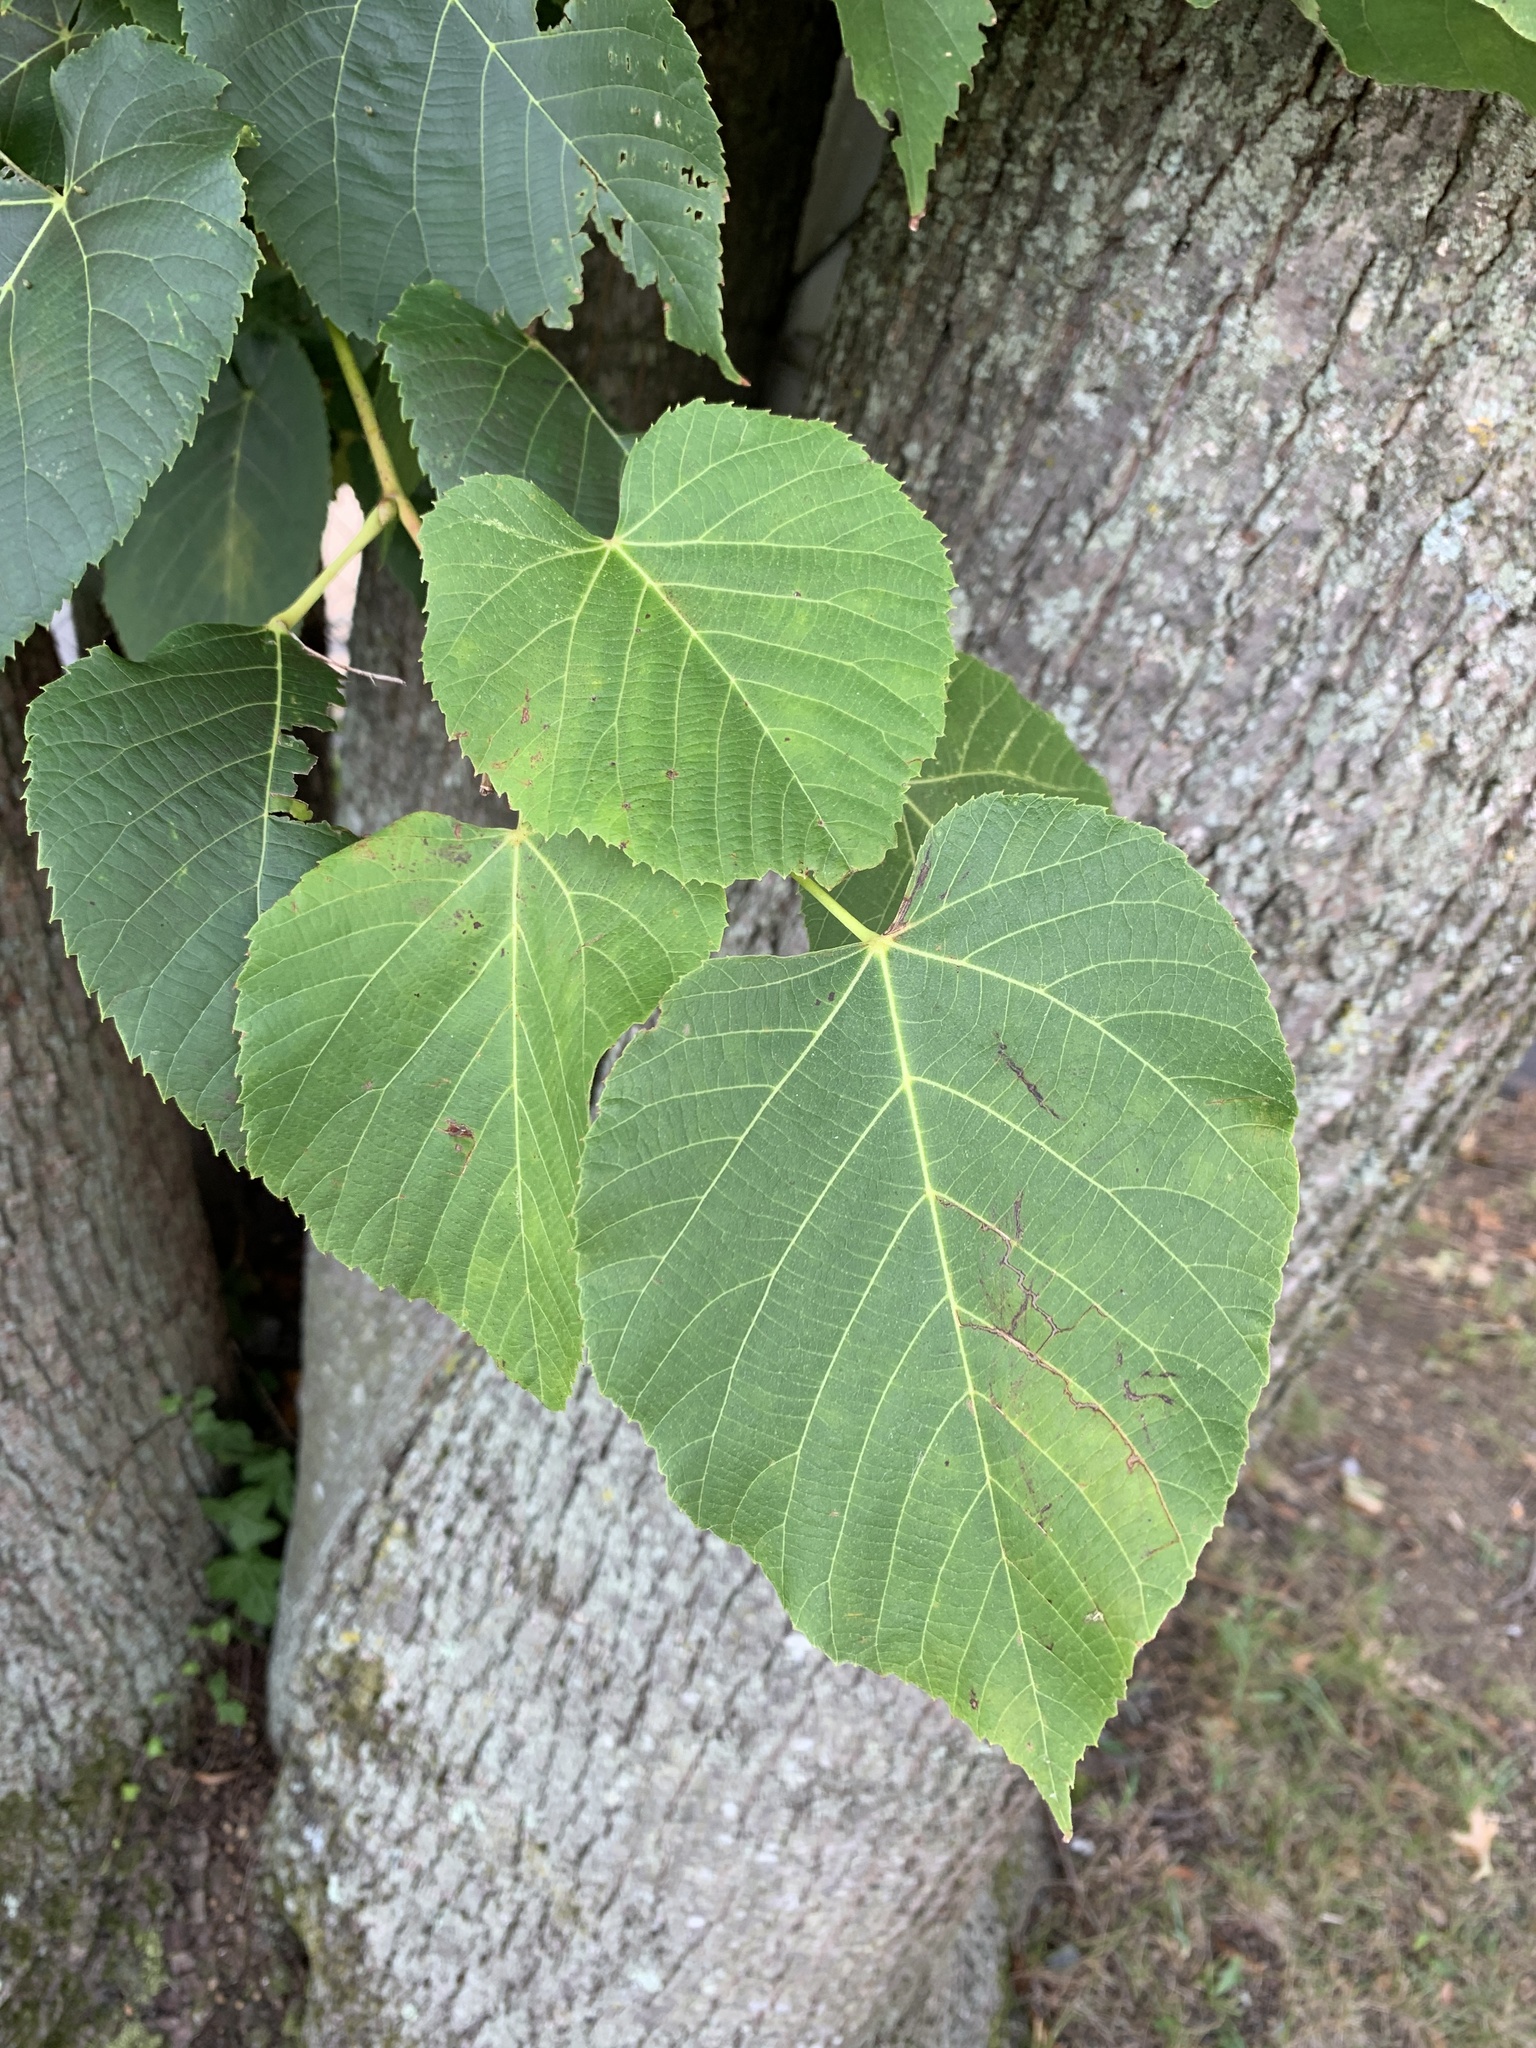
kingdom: Plantae
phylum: Tracheophyta
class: Magnoliopsida
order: Malvales
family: Malvaceae
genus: Tilia
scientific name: Tilia americana
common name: Basswood
